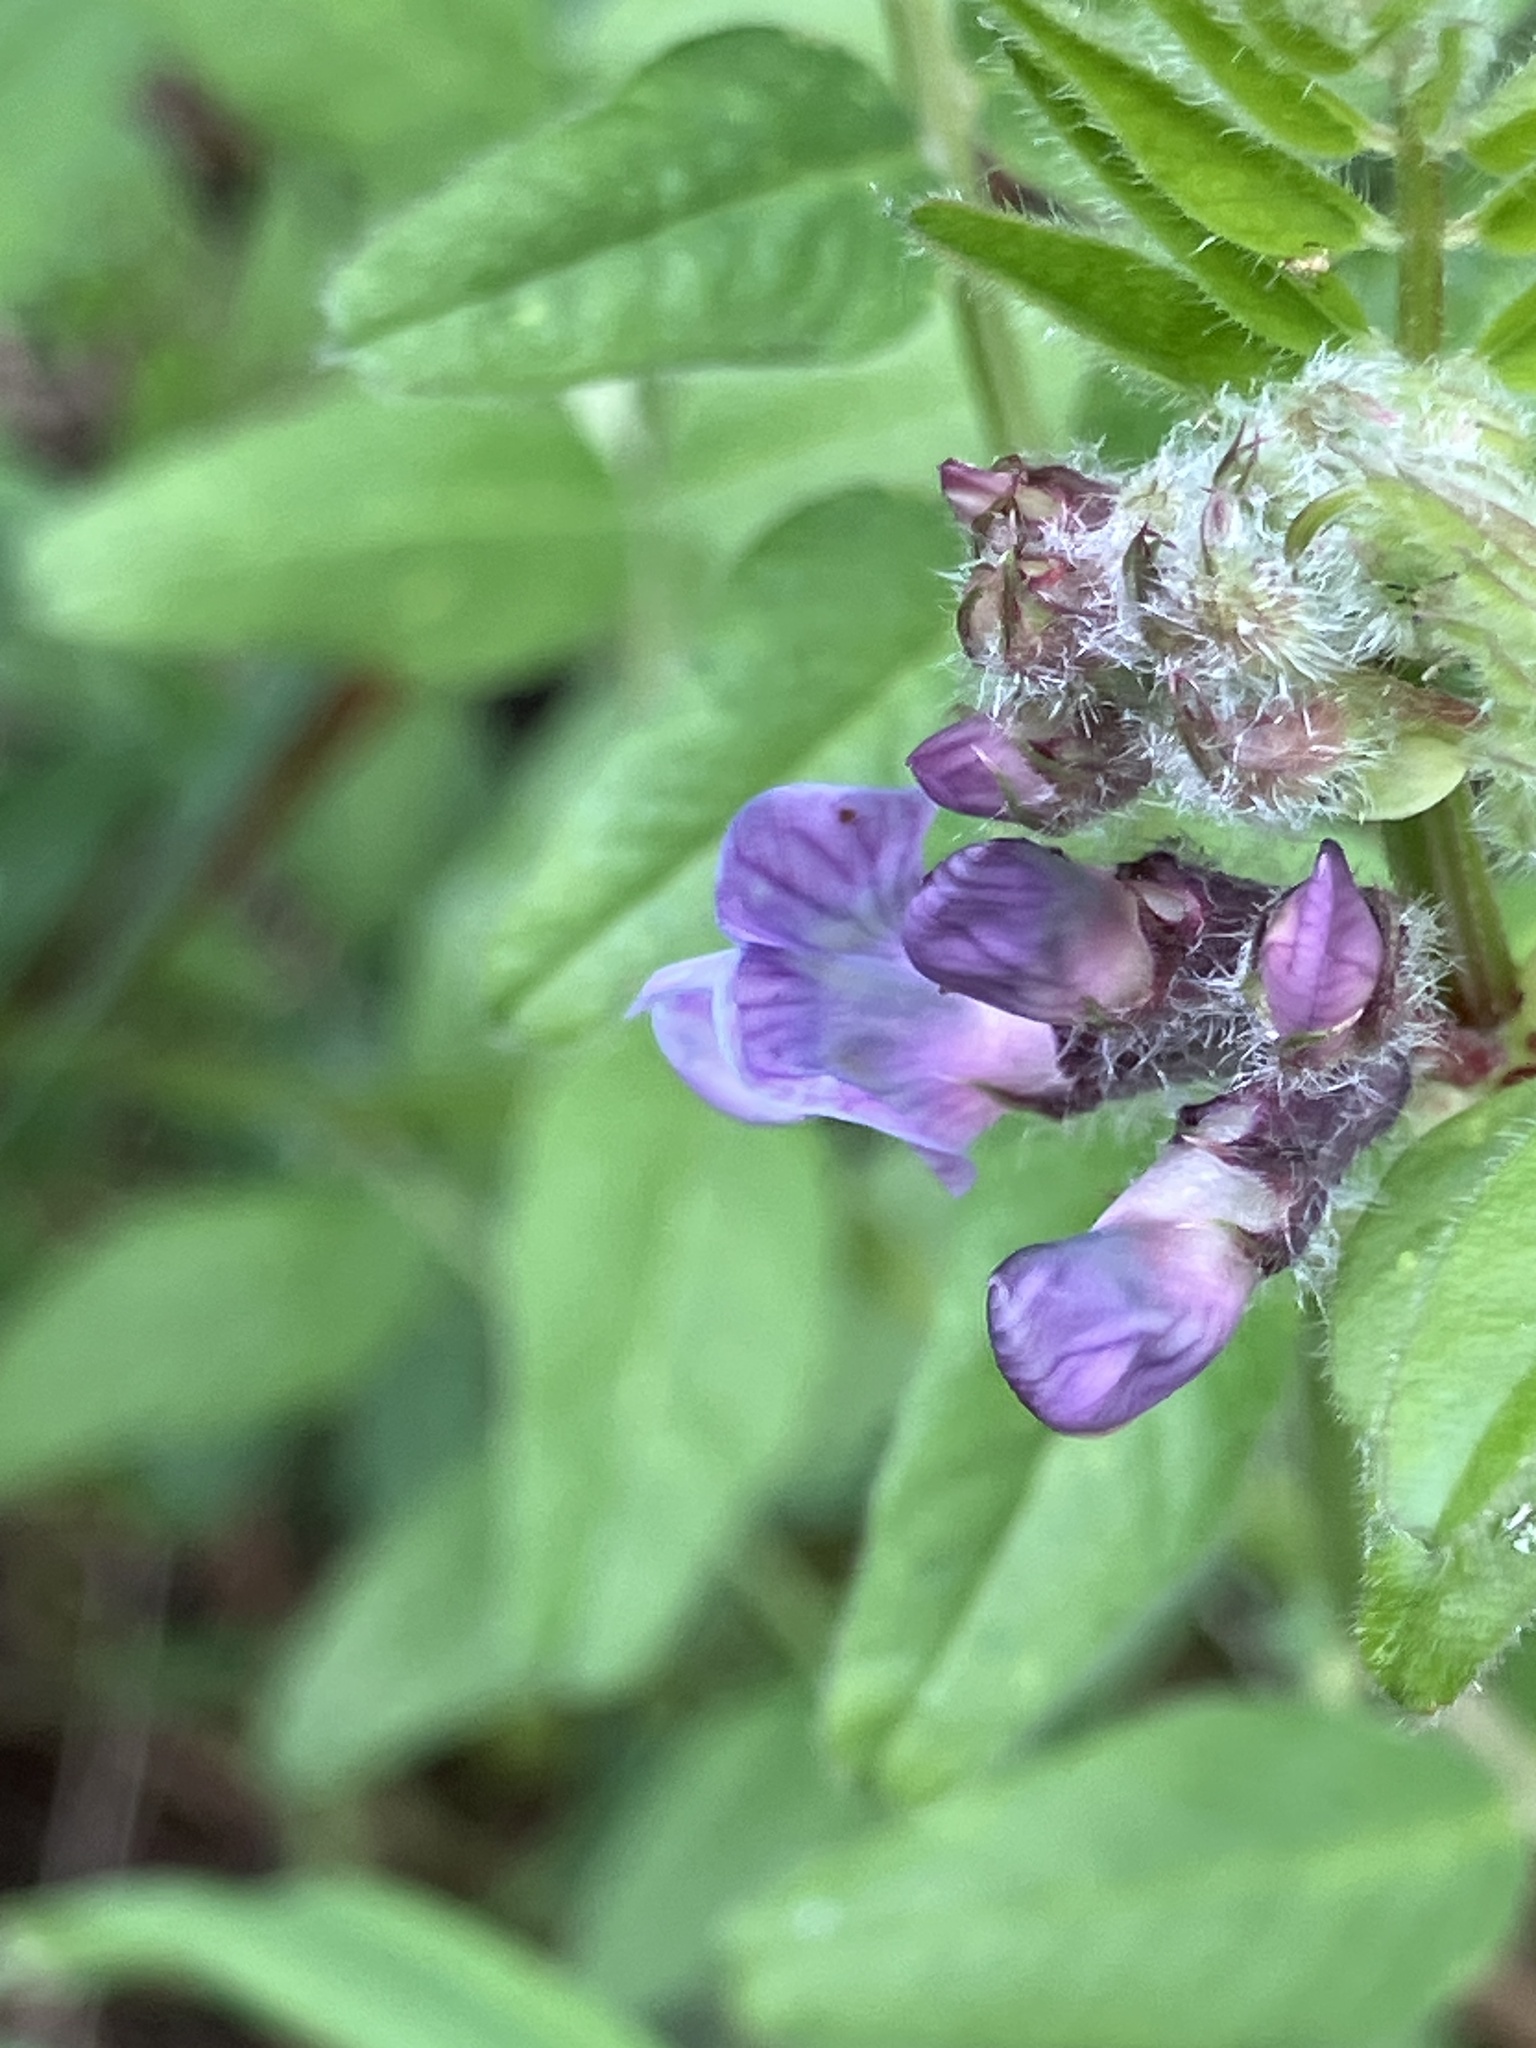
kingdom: Plantae
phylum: Tracheophyta
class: Magnoliopsida
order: Fabales
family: Fabaceae
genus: Vicia
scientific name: Vicia sepium
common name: Bush vetch
